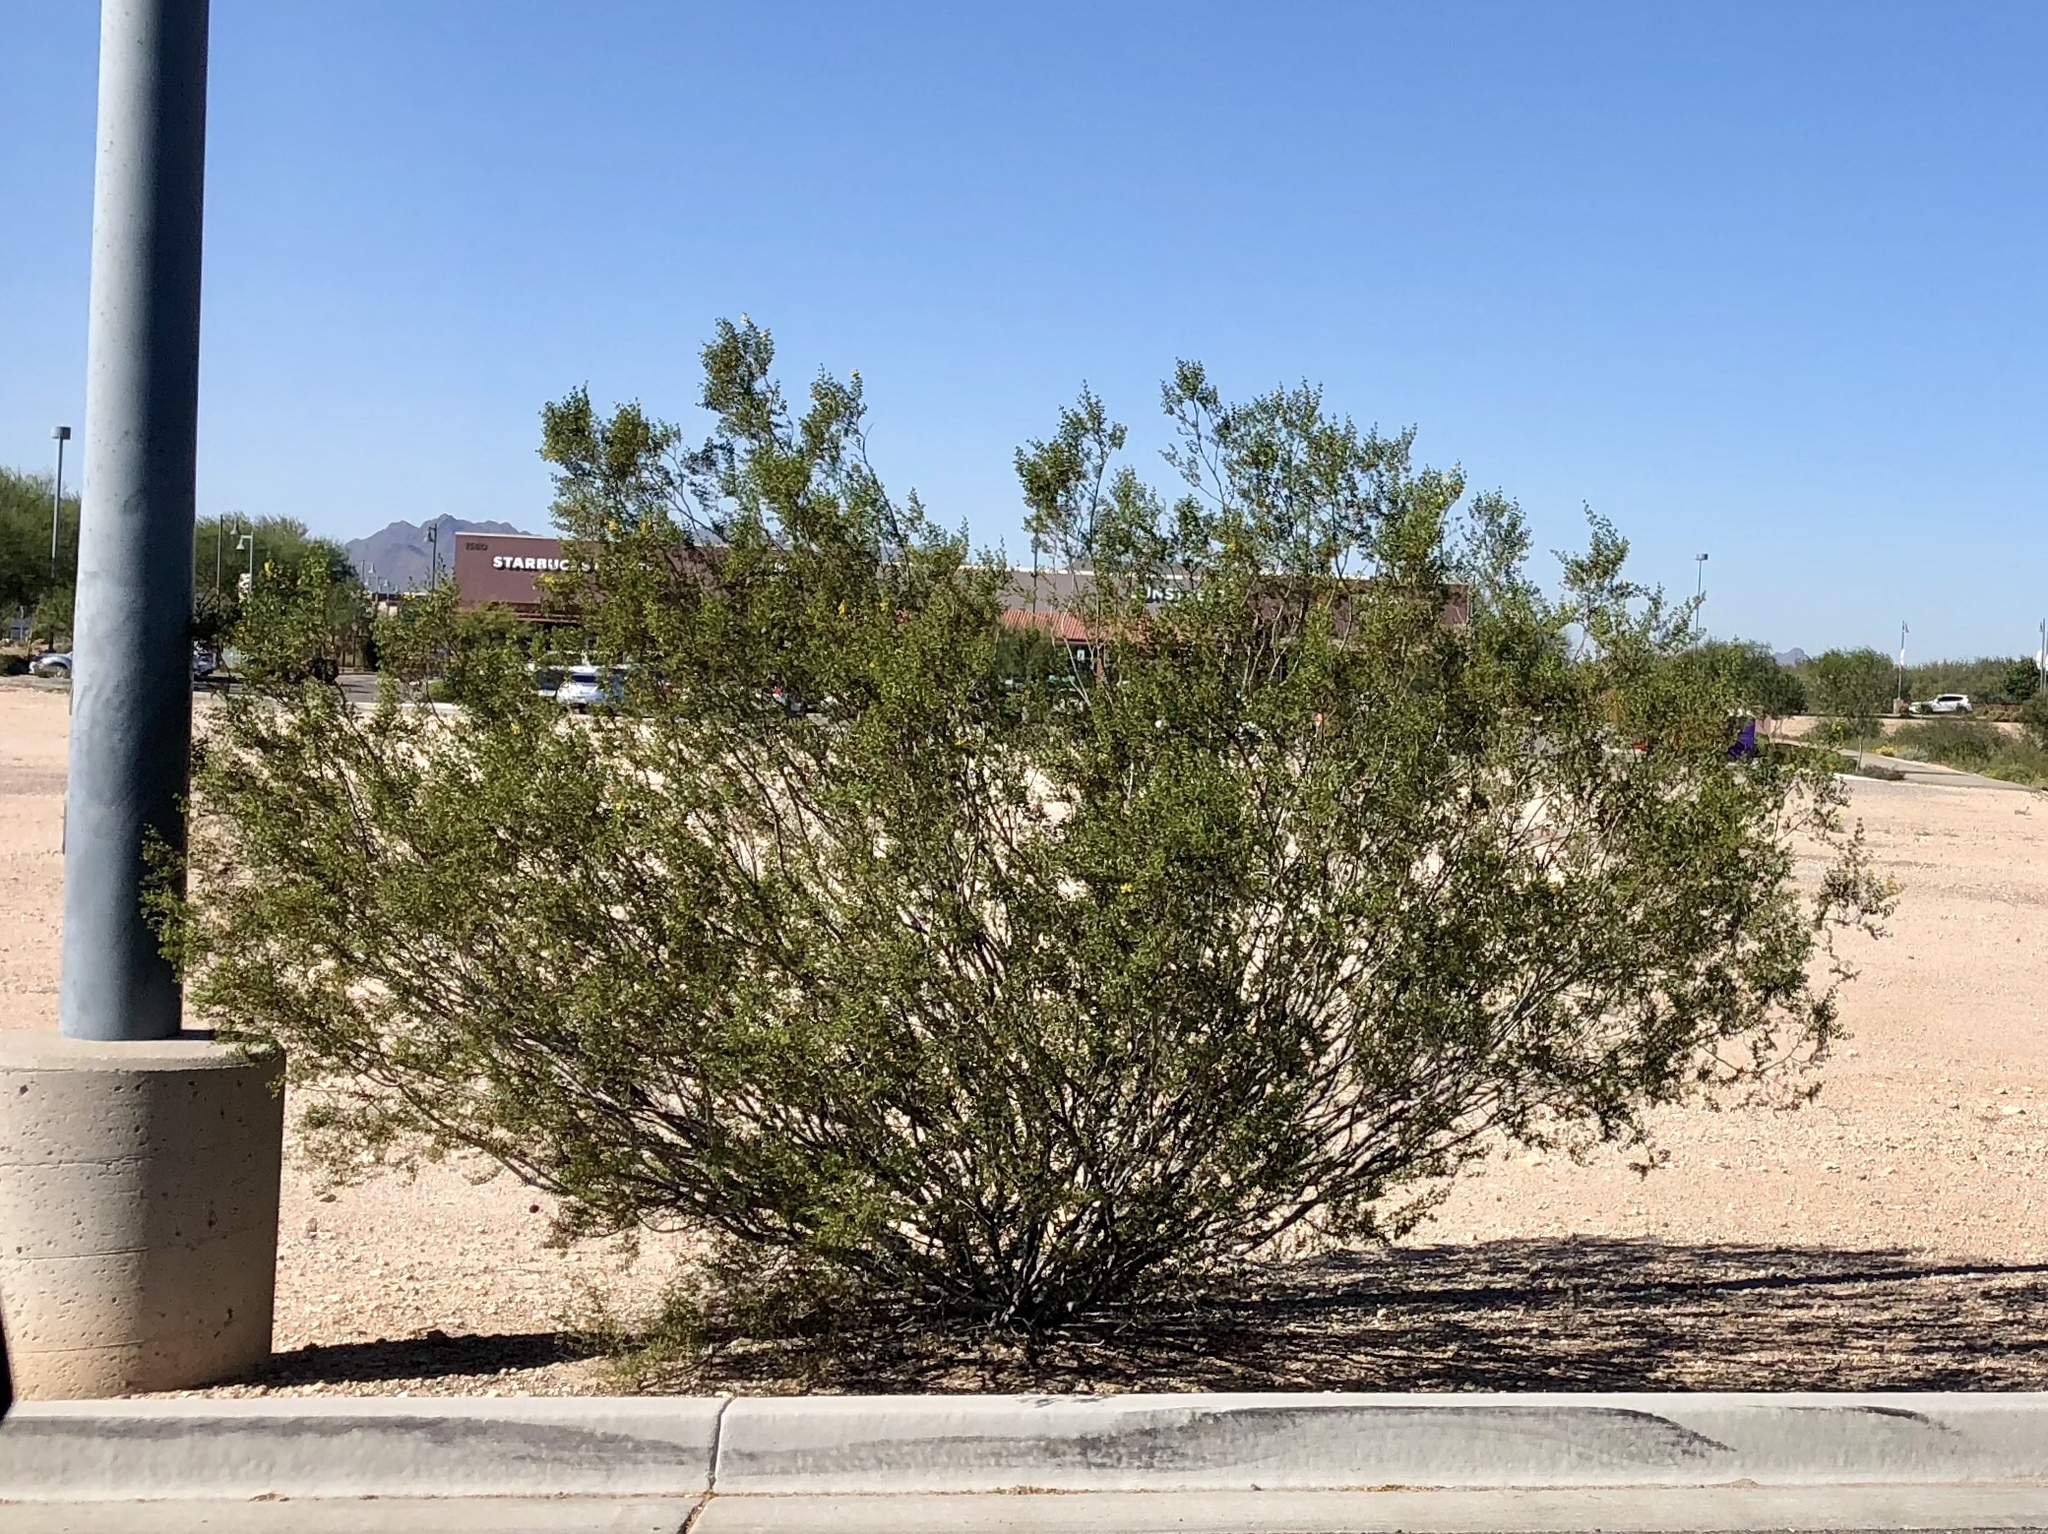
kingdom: Plantae
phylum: Tracheophyta
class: Magnoliopsida
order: Zygophyllales
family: Zygophyllaceae
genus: Larrea
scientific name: Larrea tridentata
